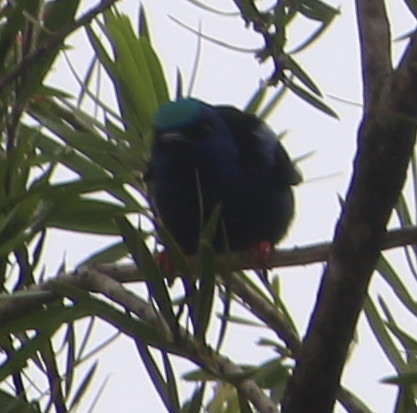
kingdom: Animalia
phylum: Chordata
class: Aves
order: Passeriformes
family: Thraupidae
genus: Cyanerpes
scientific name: Cyanerpes cyaneus
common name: Red-legged honeycreeper
